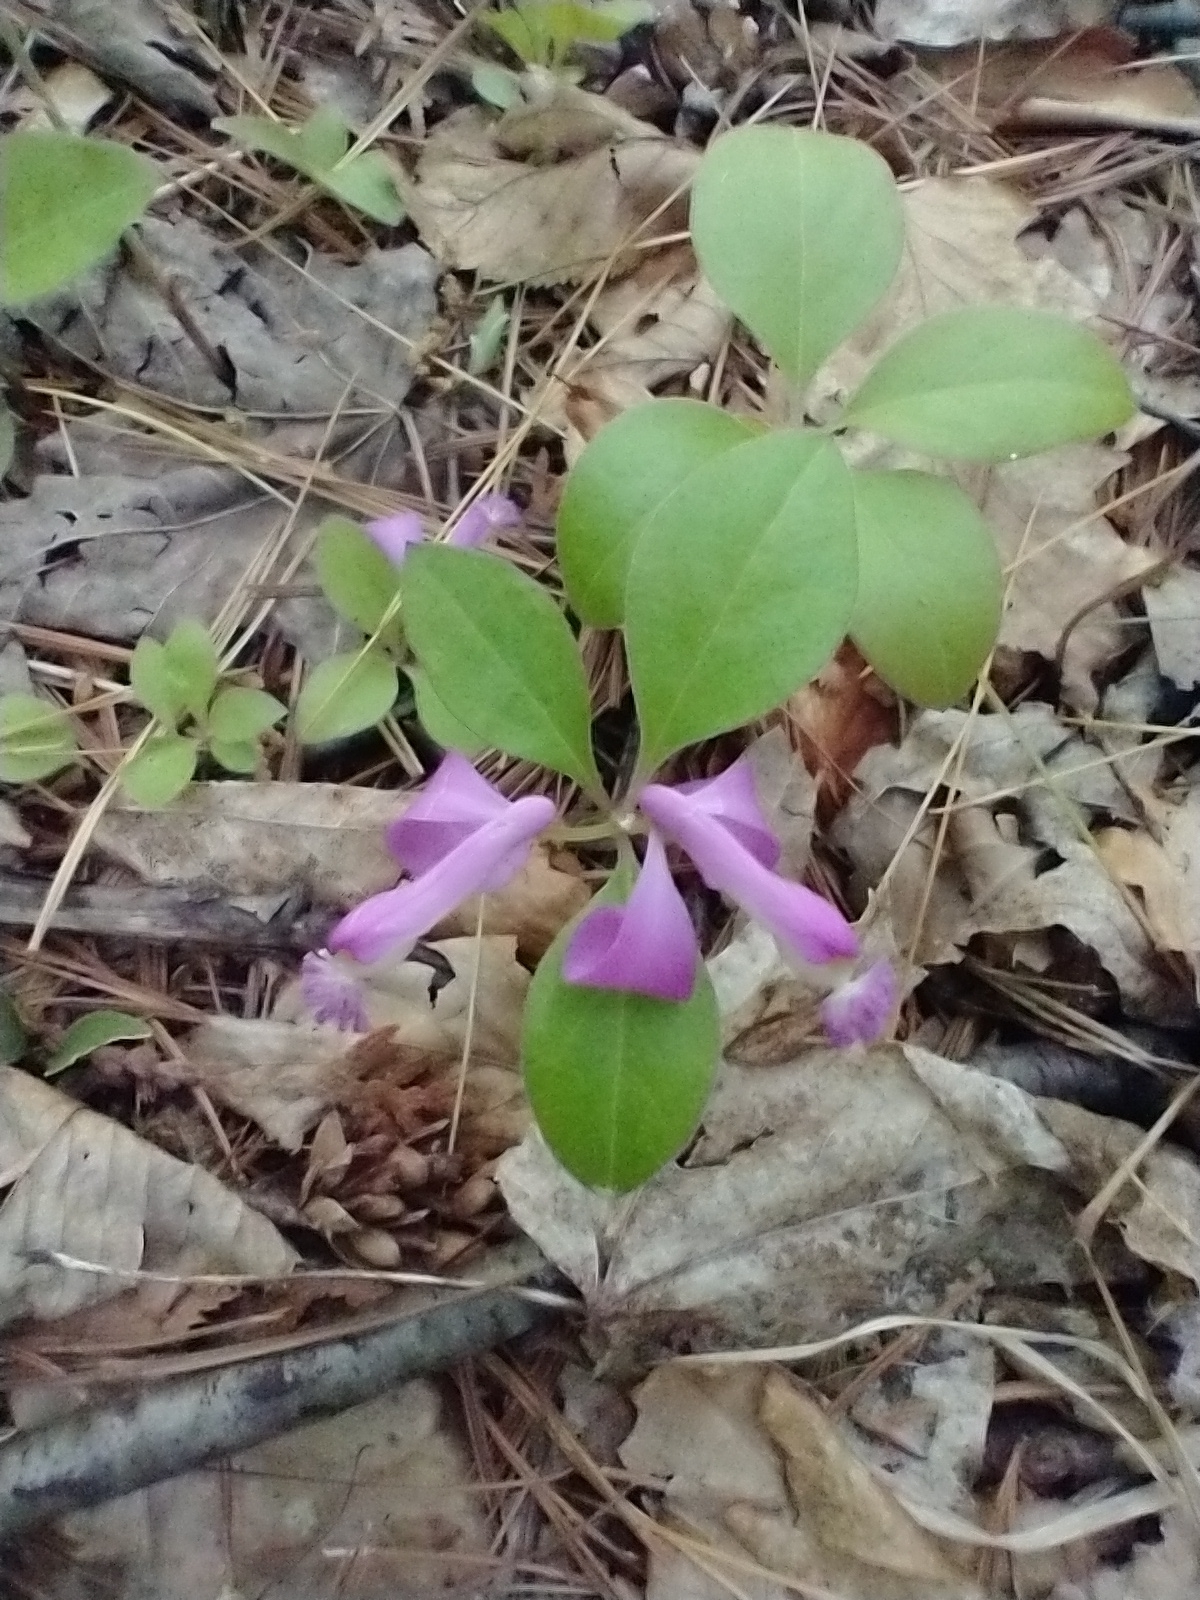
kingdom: Plantae
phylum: Tracheophyta
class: Magnoliopsida
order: Fabales
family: Polygalaceae
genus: Polygaloides
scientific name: Polygaloides paucifolia
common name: Bird-on-the-wing
